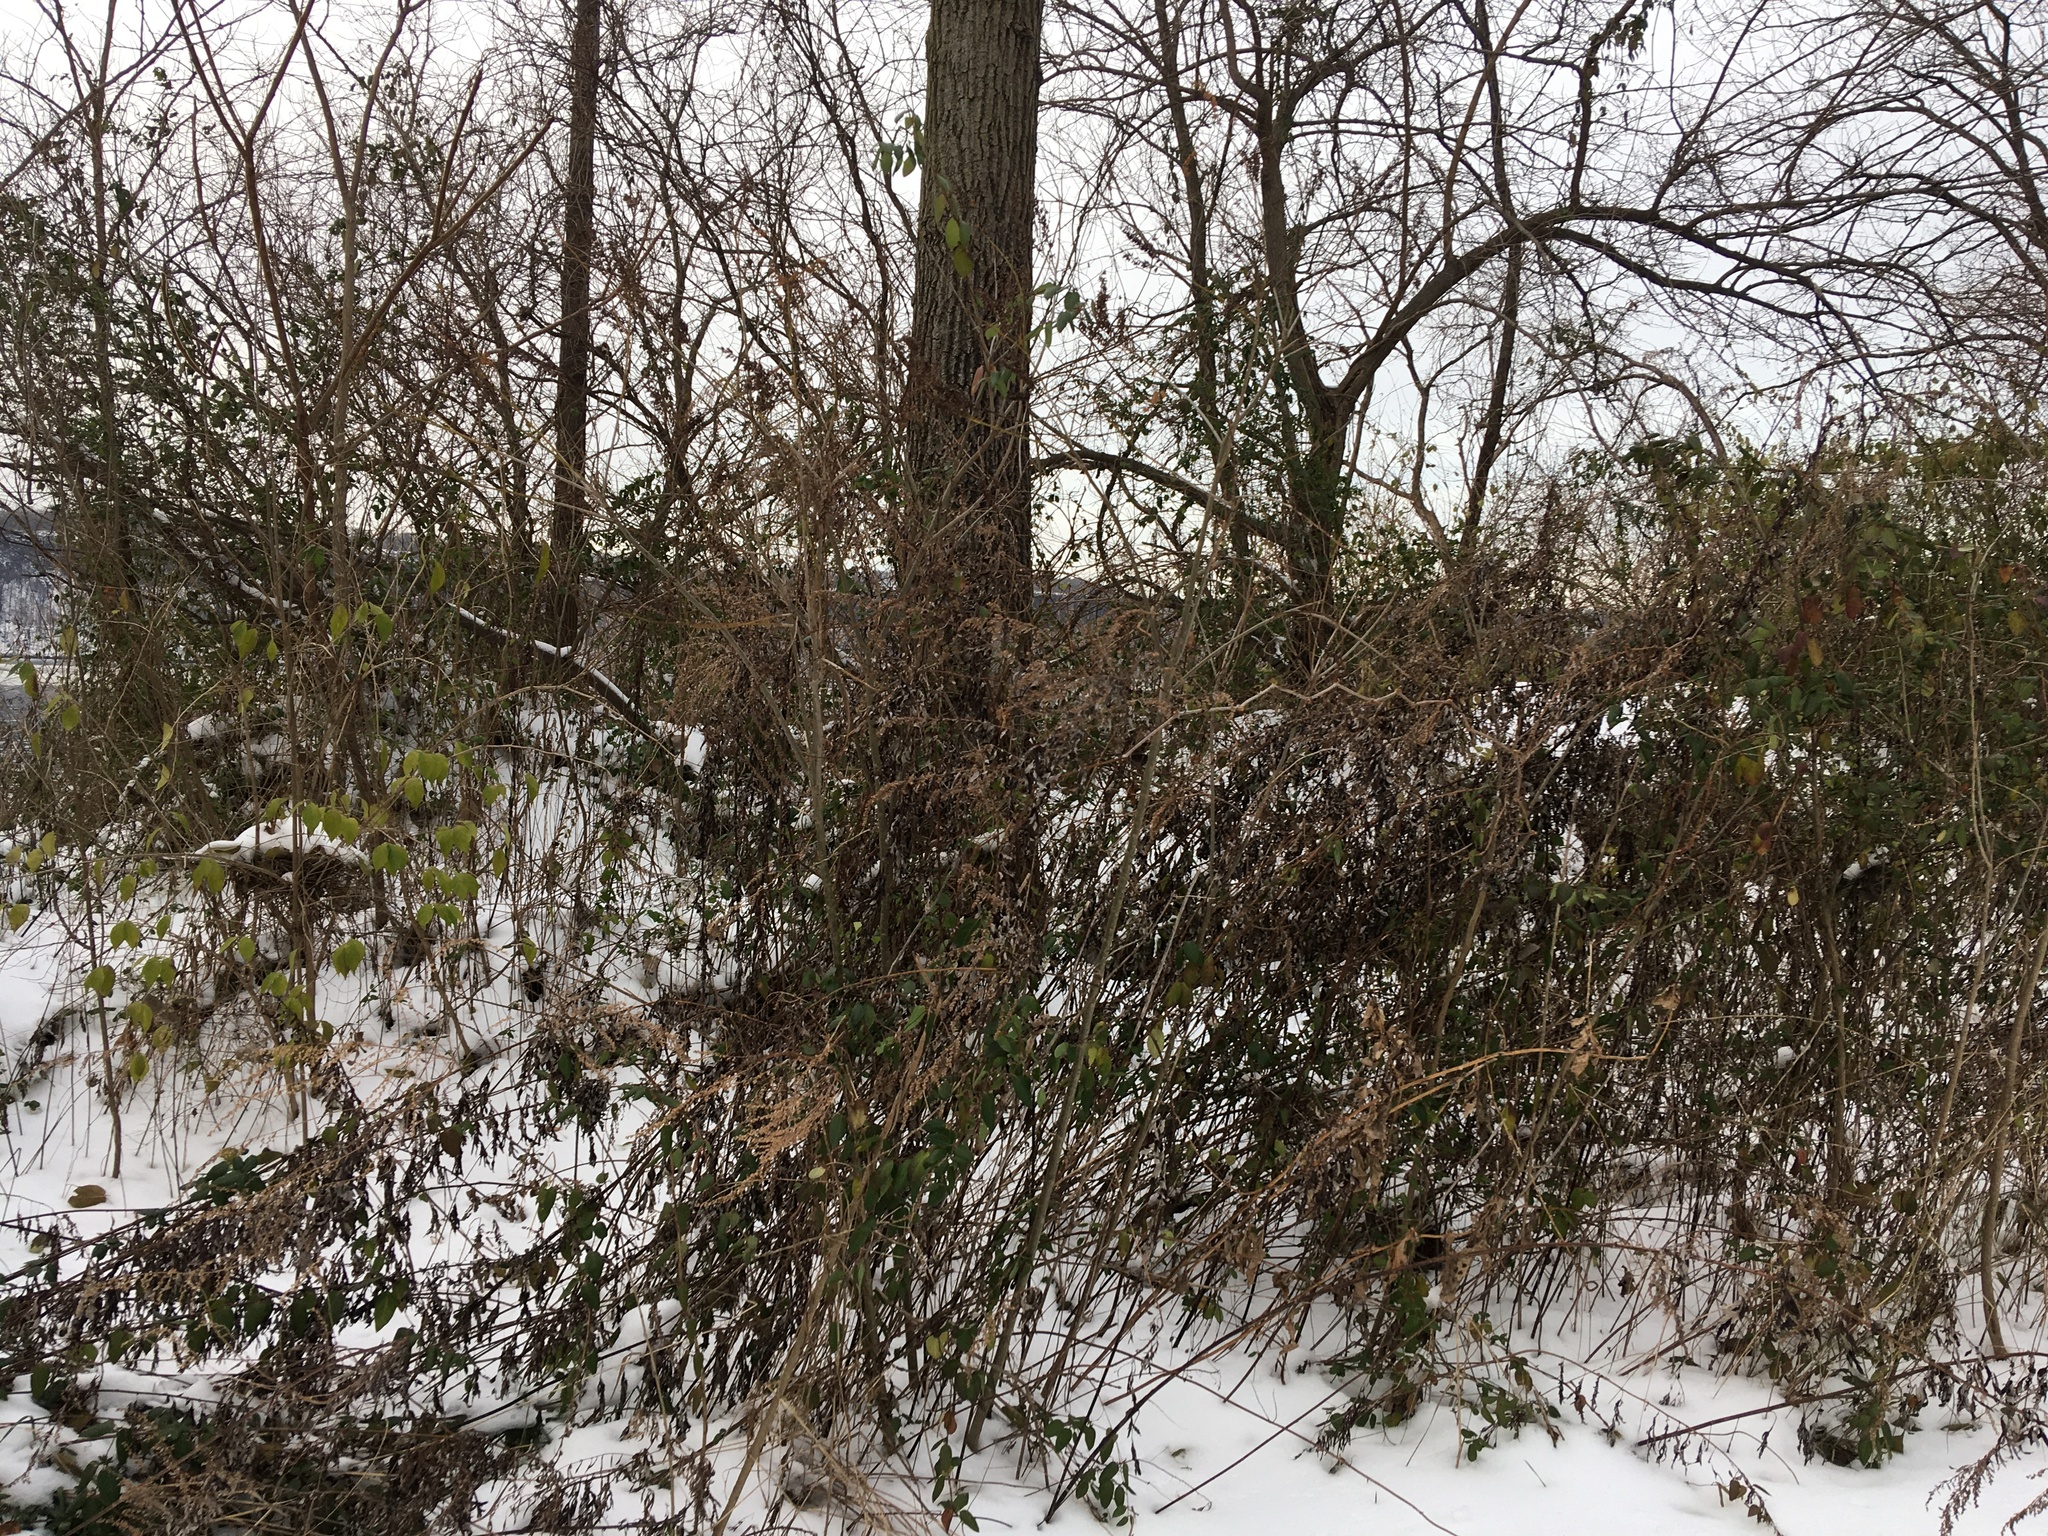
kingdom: Plantae
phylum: Tracheophyta
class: Magnoliopsida
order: Asterales
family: Asteraceae
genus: Artemisia
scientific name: Artemisia vulgaris
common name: Mugwort
